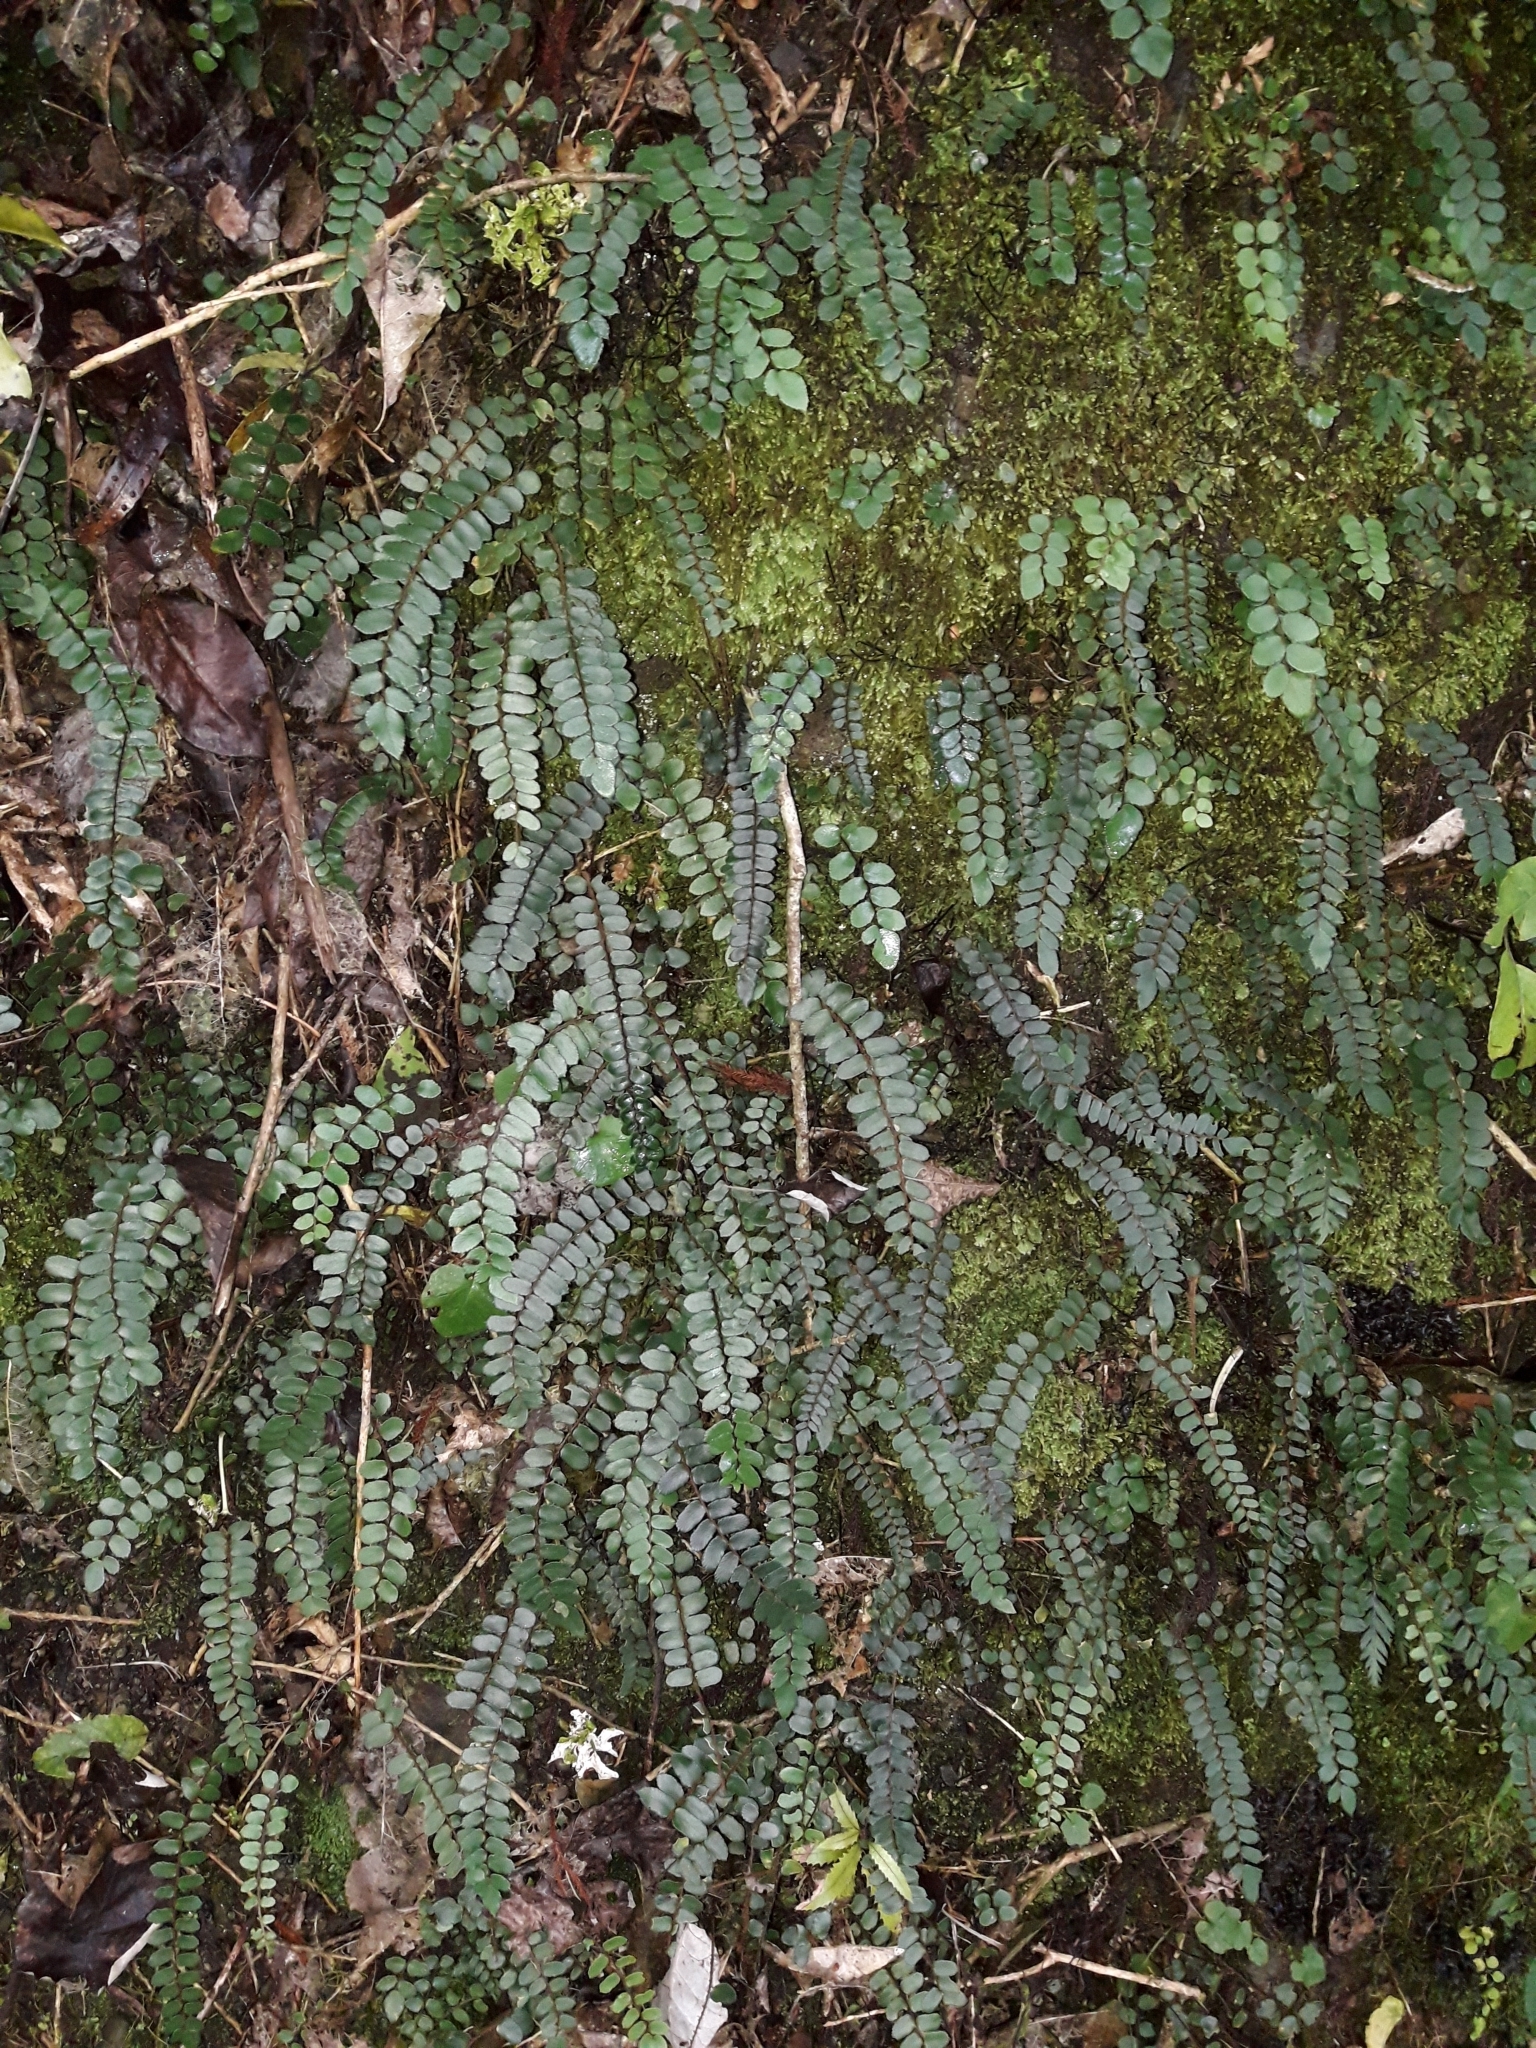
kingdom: Plantae
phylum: Tracheophyta
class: Polypodiopsida
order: Polypodiales
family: Pteridaceae
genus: Pellaea
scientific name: Pellaea rotundifolia
